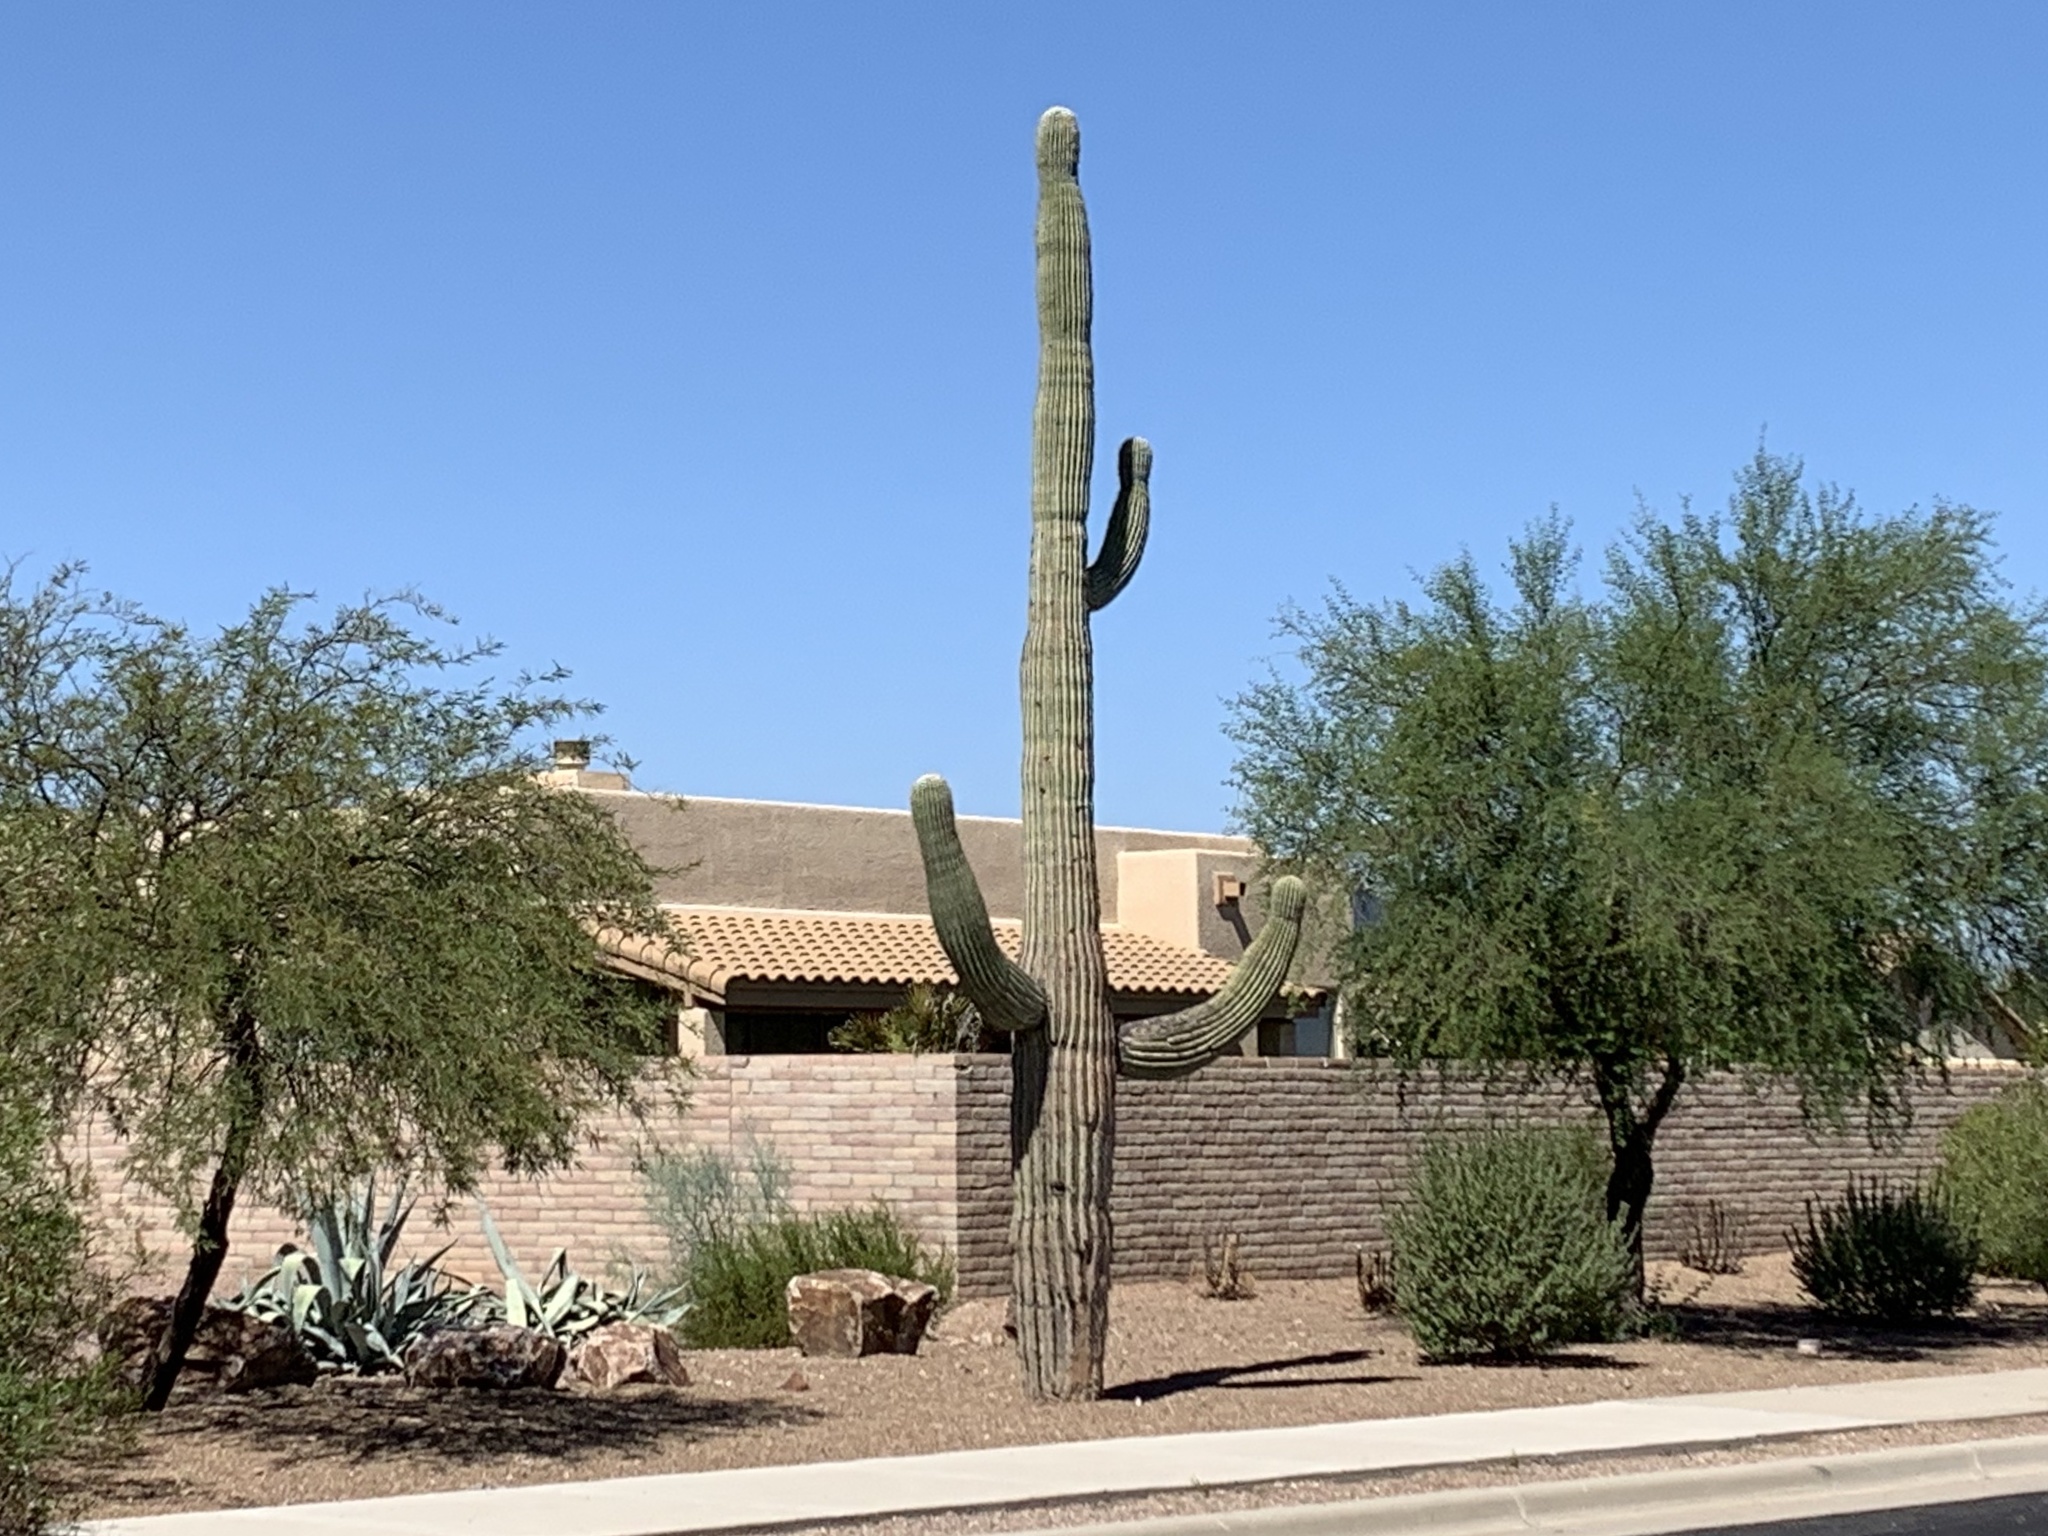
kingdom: Plantae
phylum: Tracheophyta
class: Magnoliopsida
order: Caryophyllales
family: Cactaceae
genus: Carnegiea
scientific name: Carnegiea gigantea
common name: Saguaro
